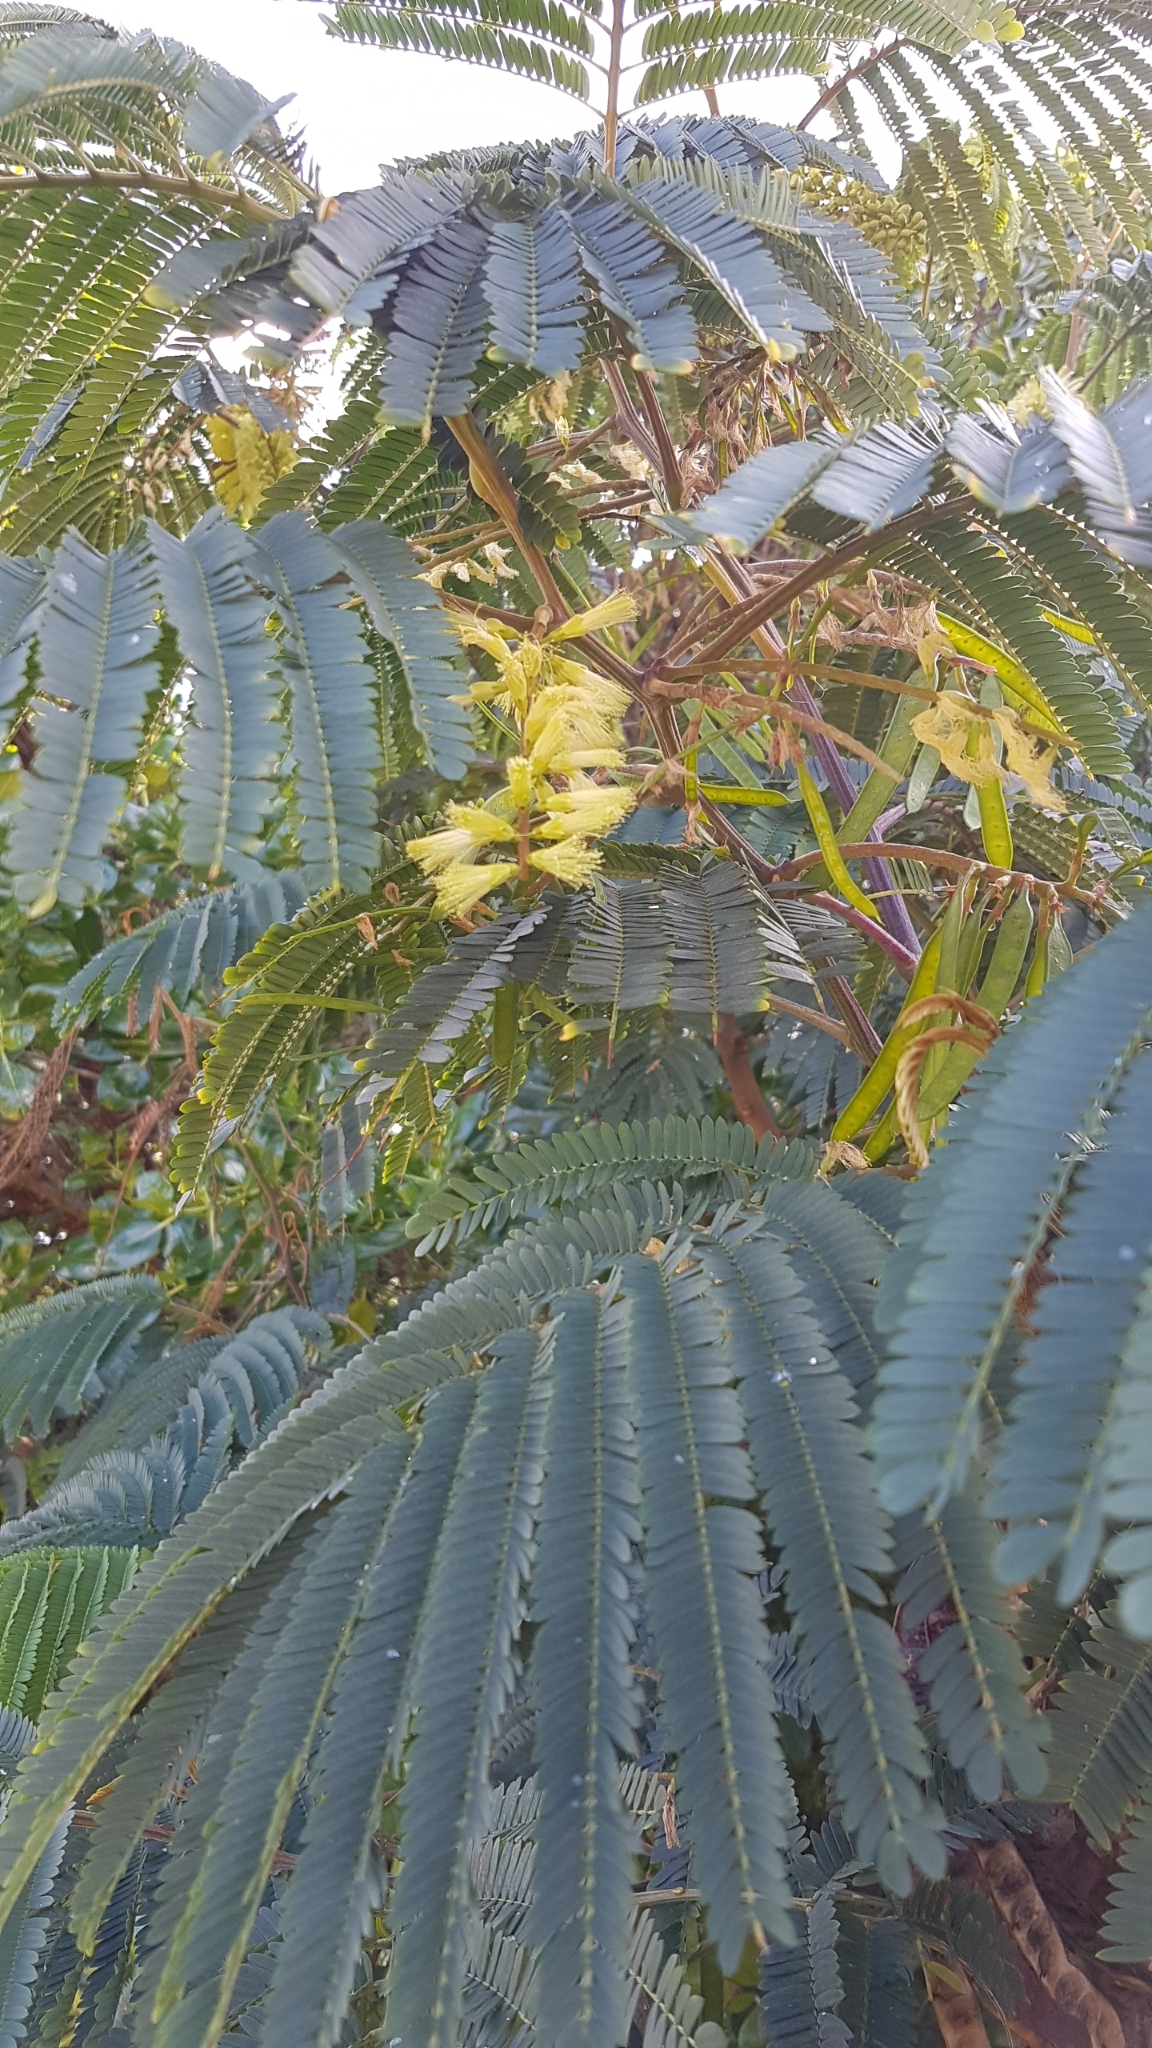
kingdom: Plantae
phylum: Tracheophyta
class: Magnoliopsida
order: Fabales
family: Fabaceae
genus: Paraserianthes
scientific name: Paraserianthes lophantha
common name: Plume albizia
